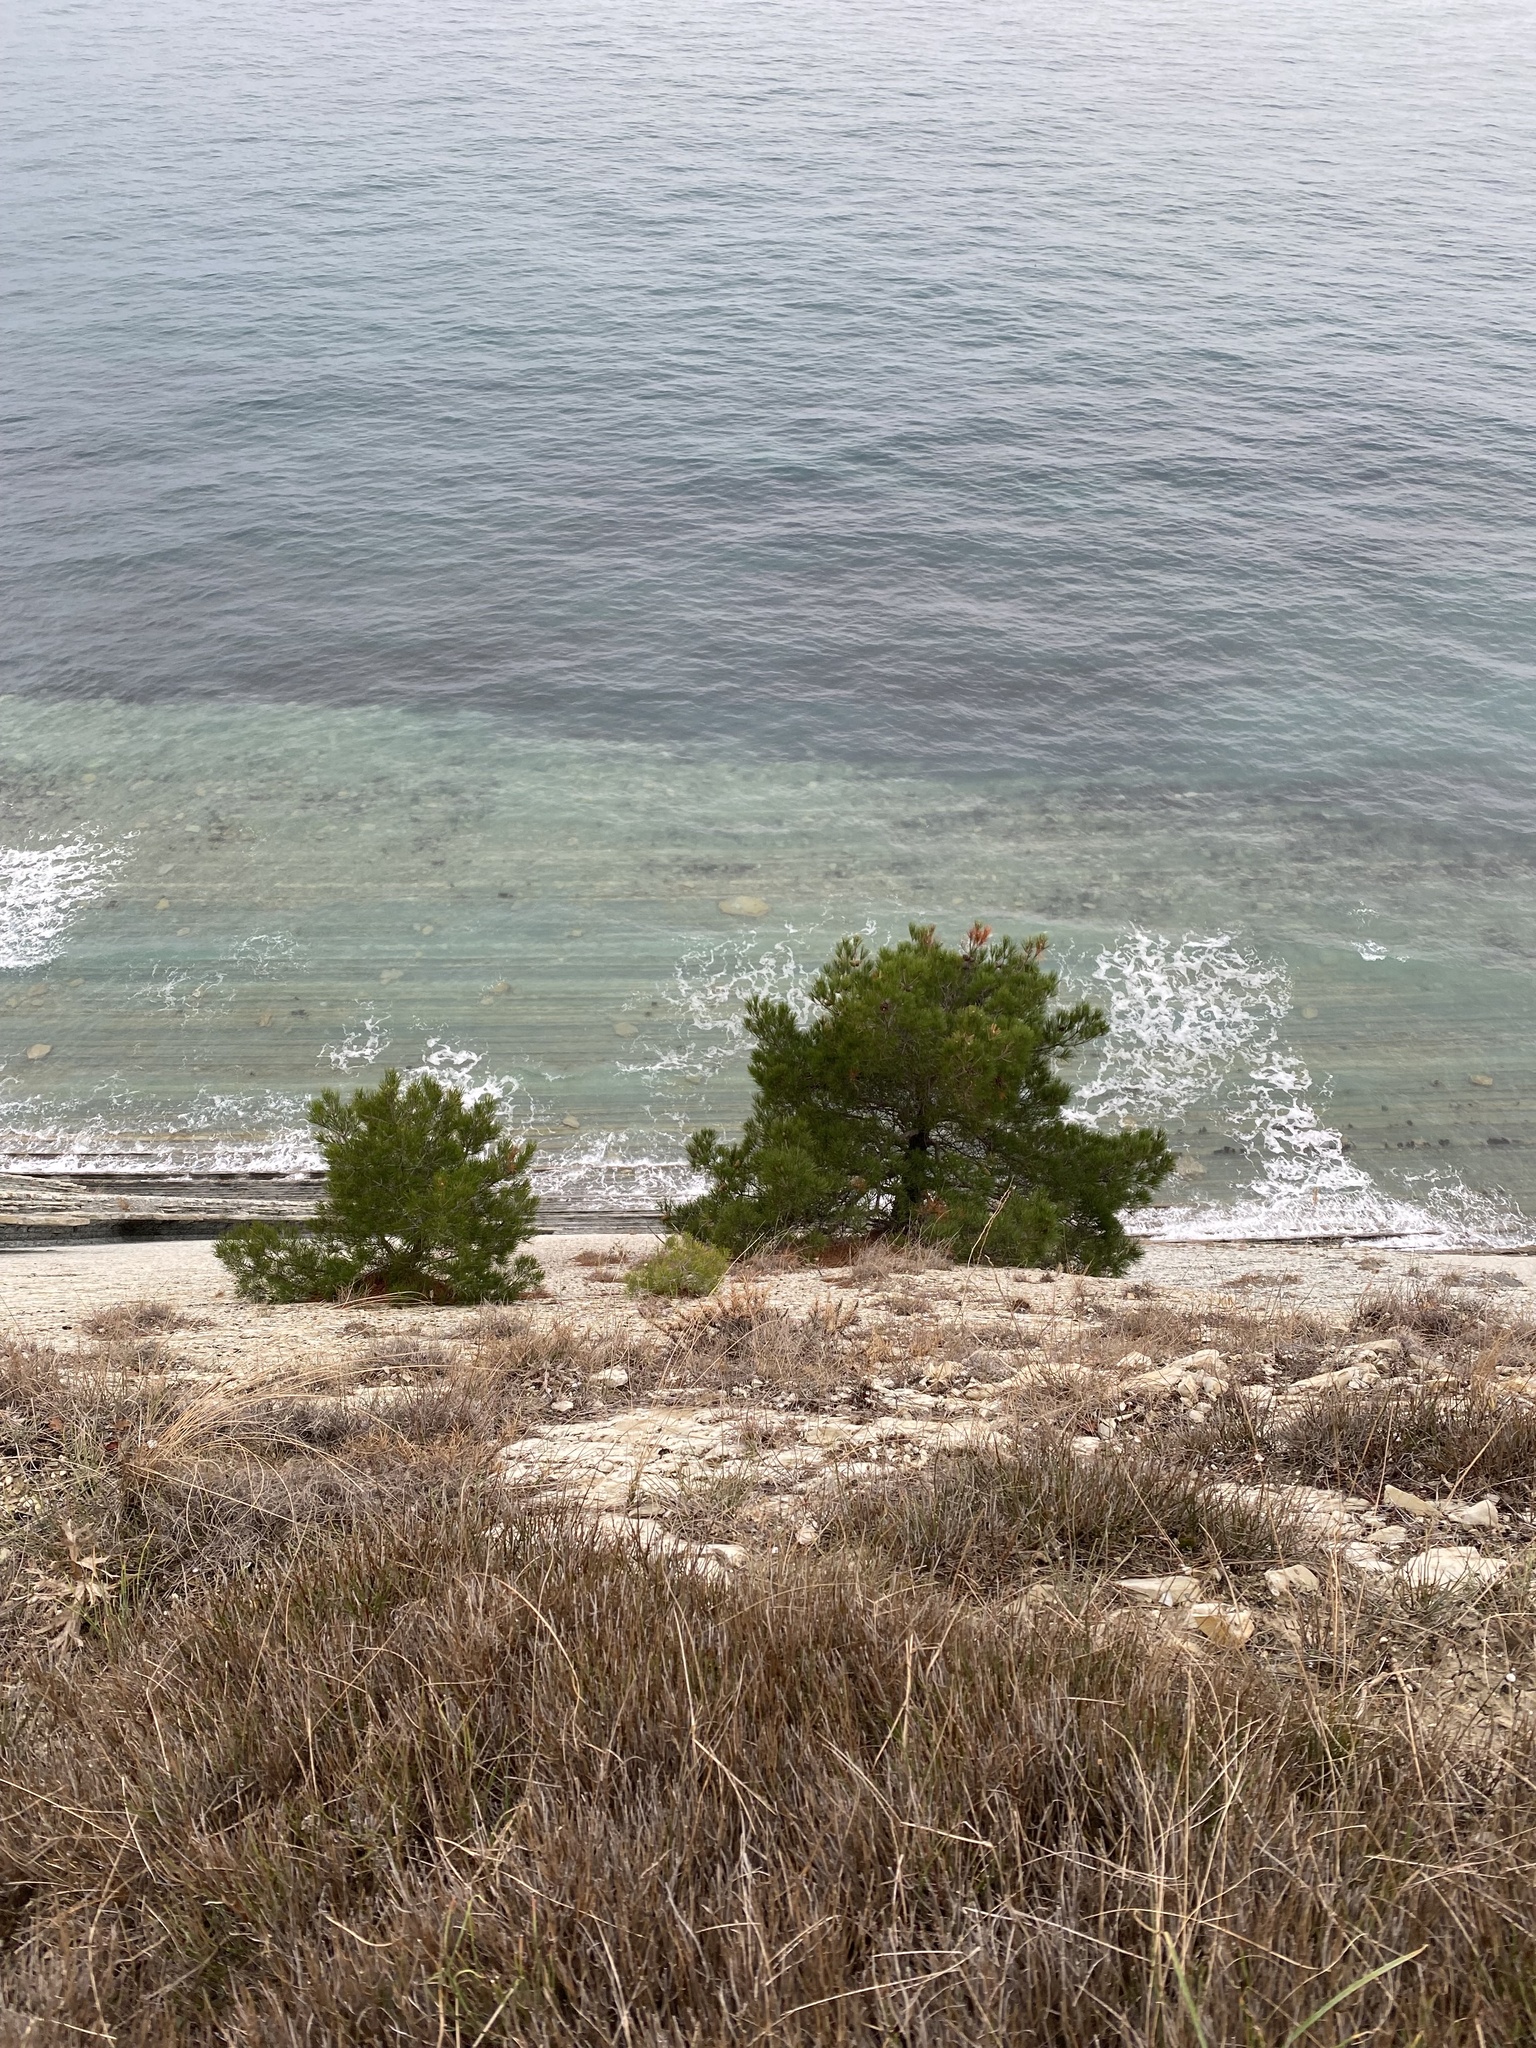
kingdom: Plantae
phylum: Tracheophyta
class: Pinopsida
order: Pinales
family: Pinaceae
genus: Pinus
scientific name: Pinus brutia
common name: Turkish pine
